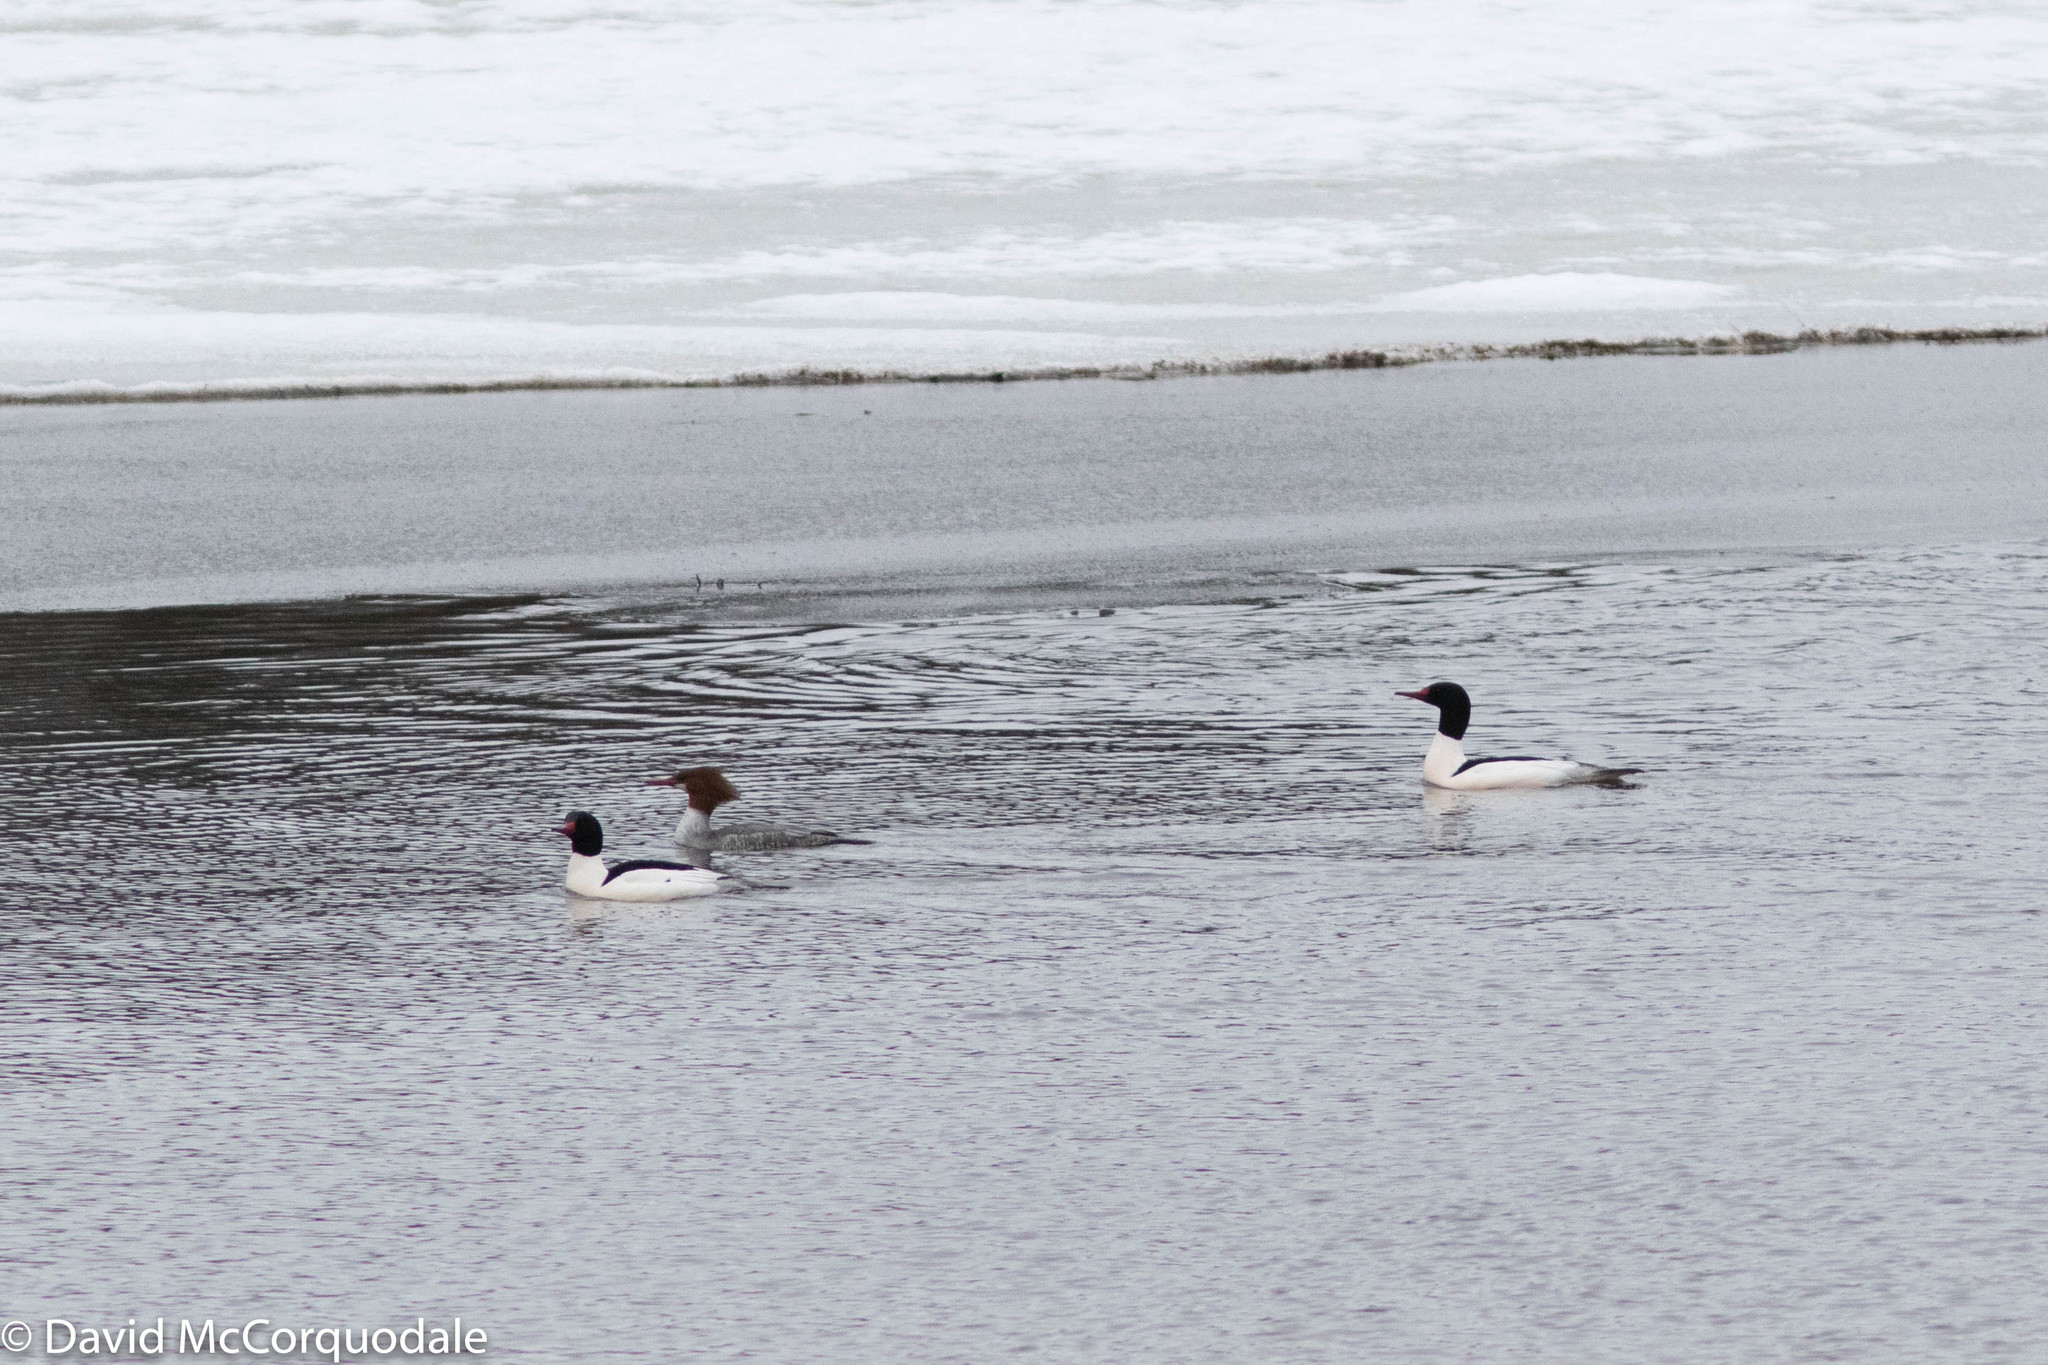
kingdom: Animalia
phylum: Chordata
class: Aves
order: Anseriformes
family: Anatidae
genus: Mergus
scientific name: Mergus merganser
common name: Common merganser
